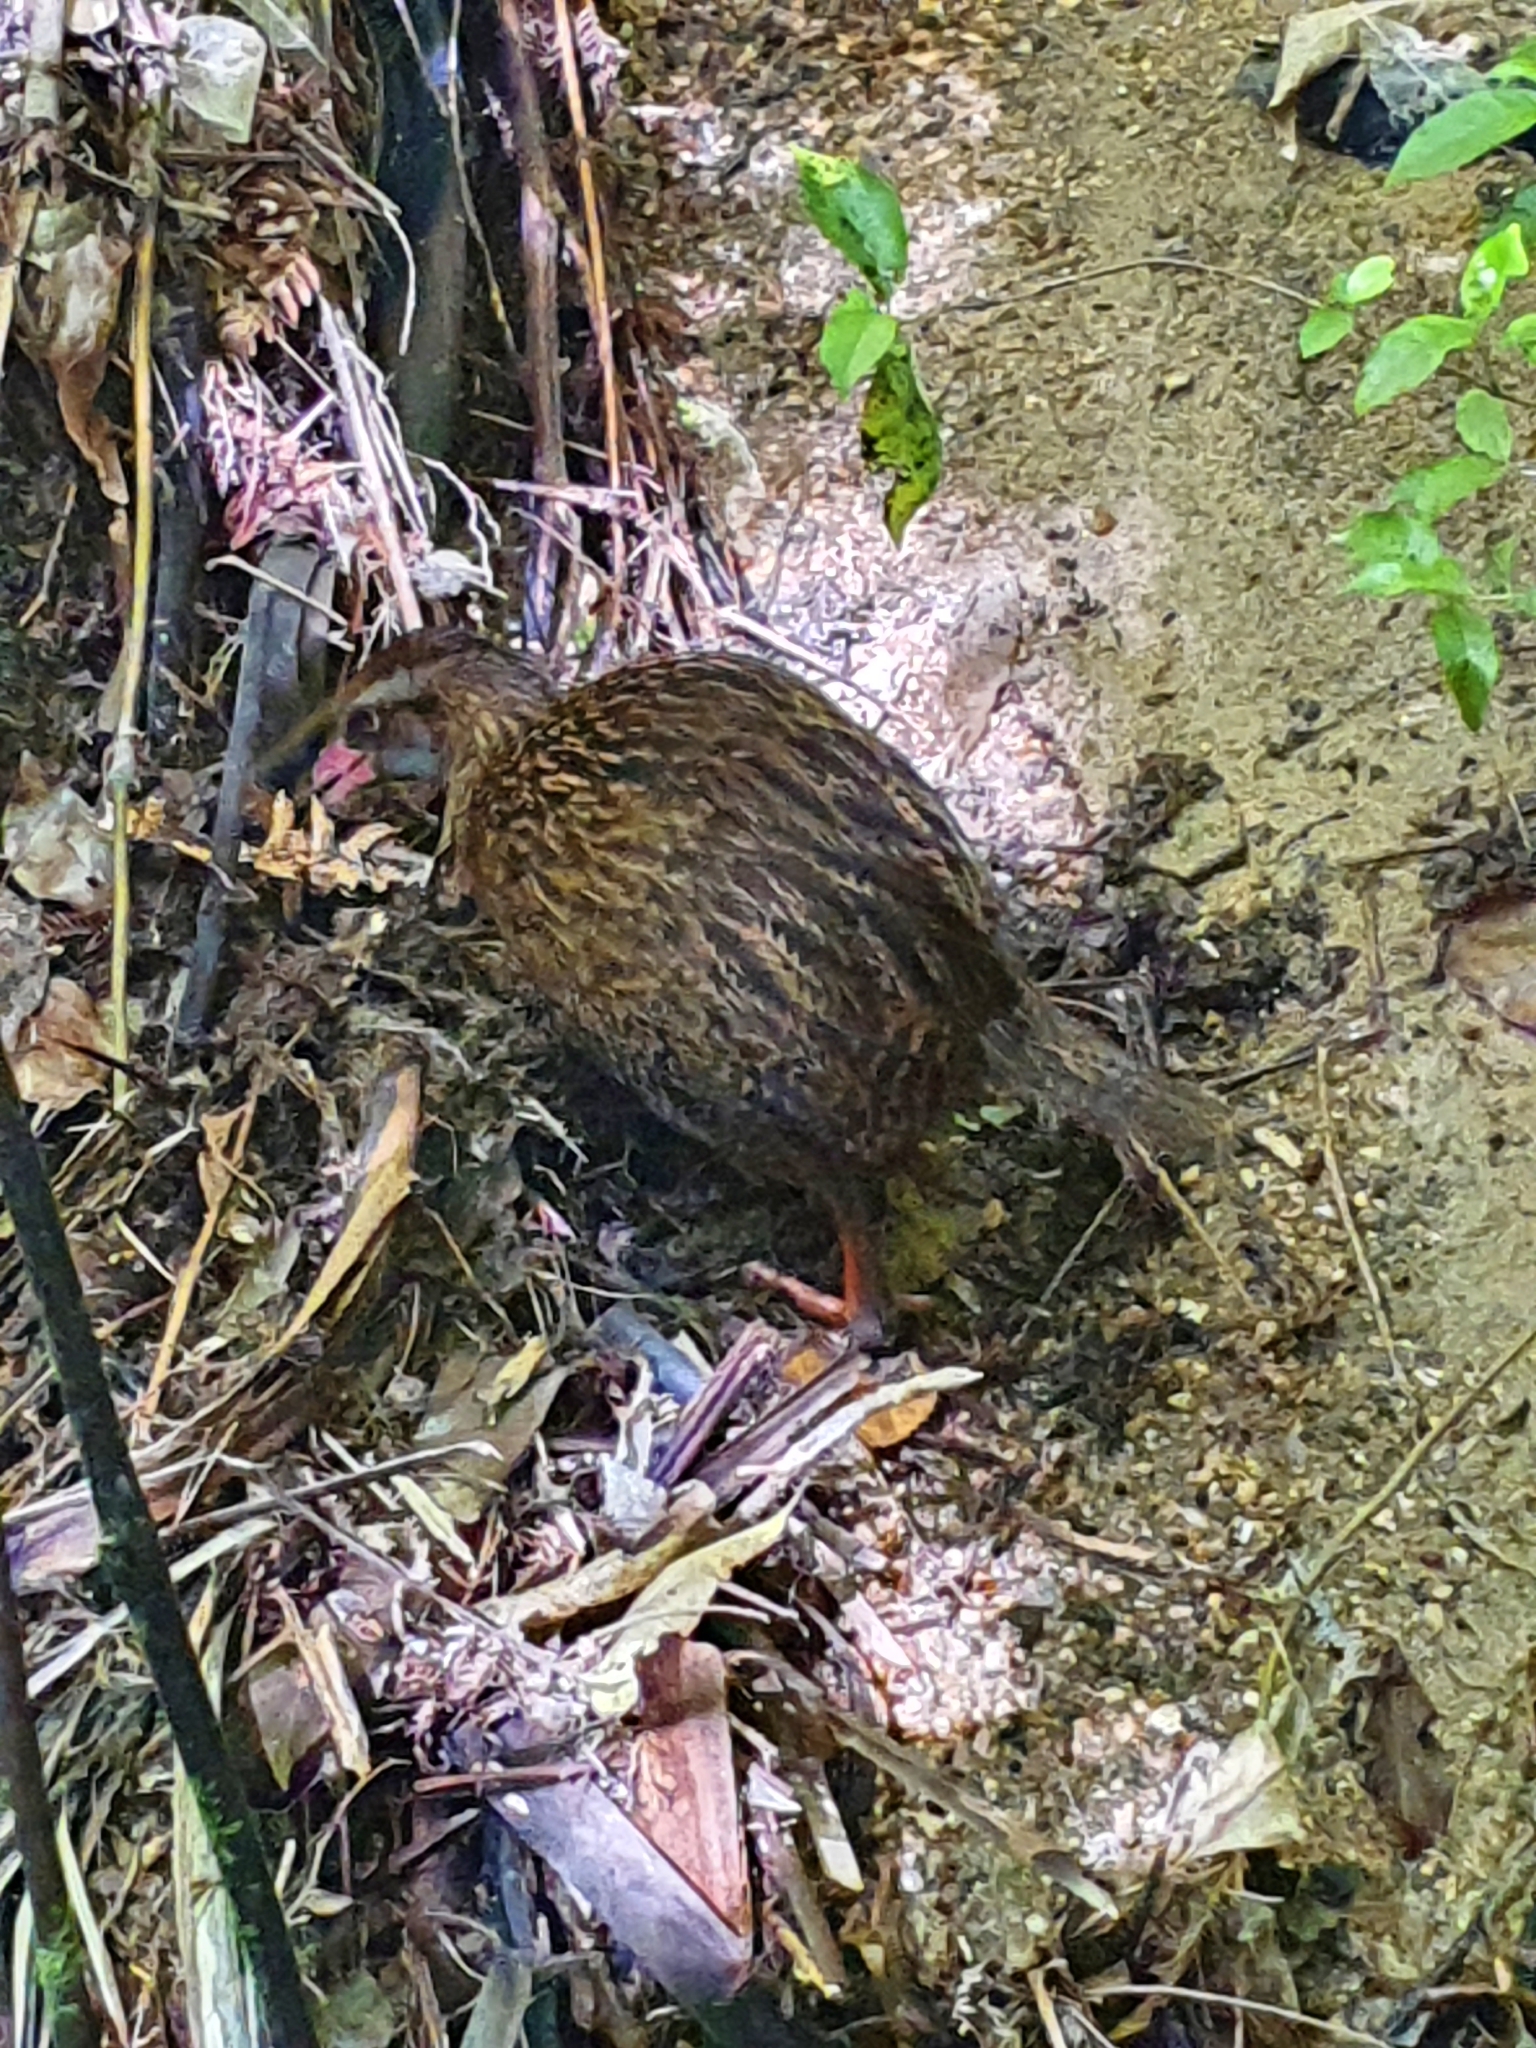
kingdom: Animalia
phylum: Chordata
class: Aves
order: Gruiformes
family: Rallidae
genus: Gallirallus
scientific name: Gallirallus australis
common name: Weka
